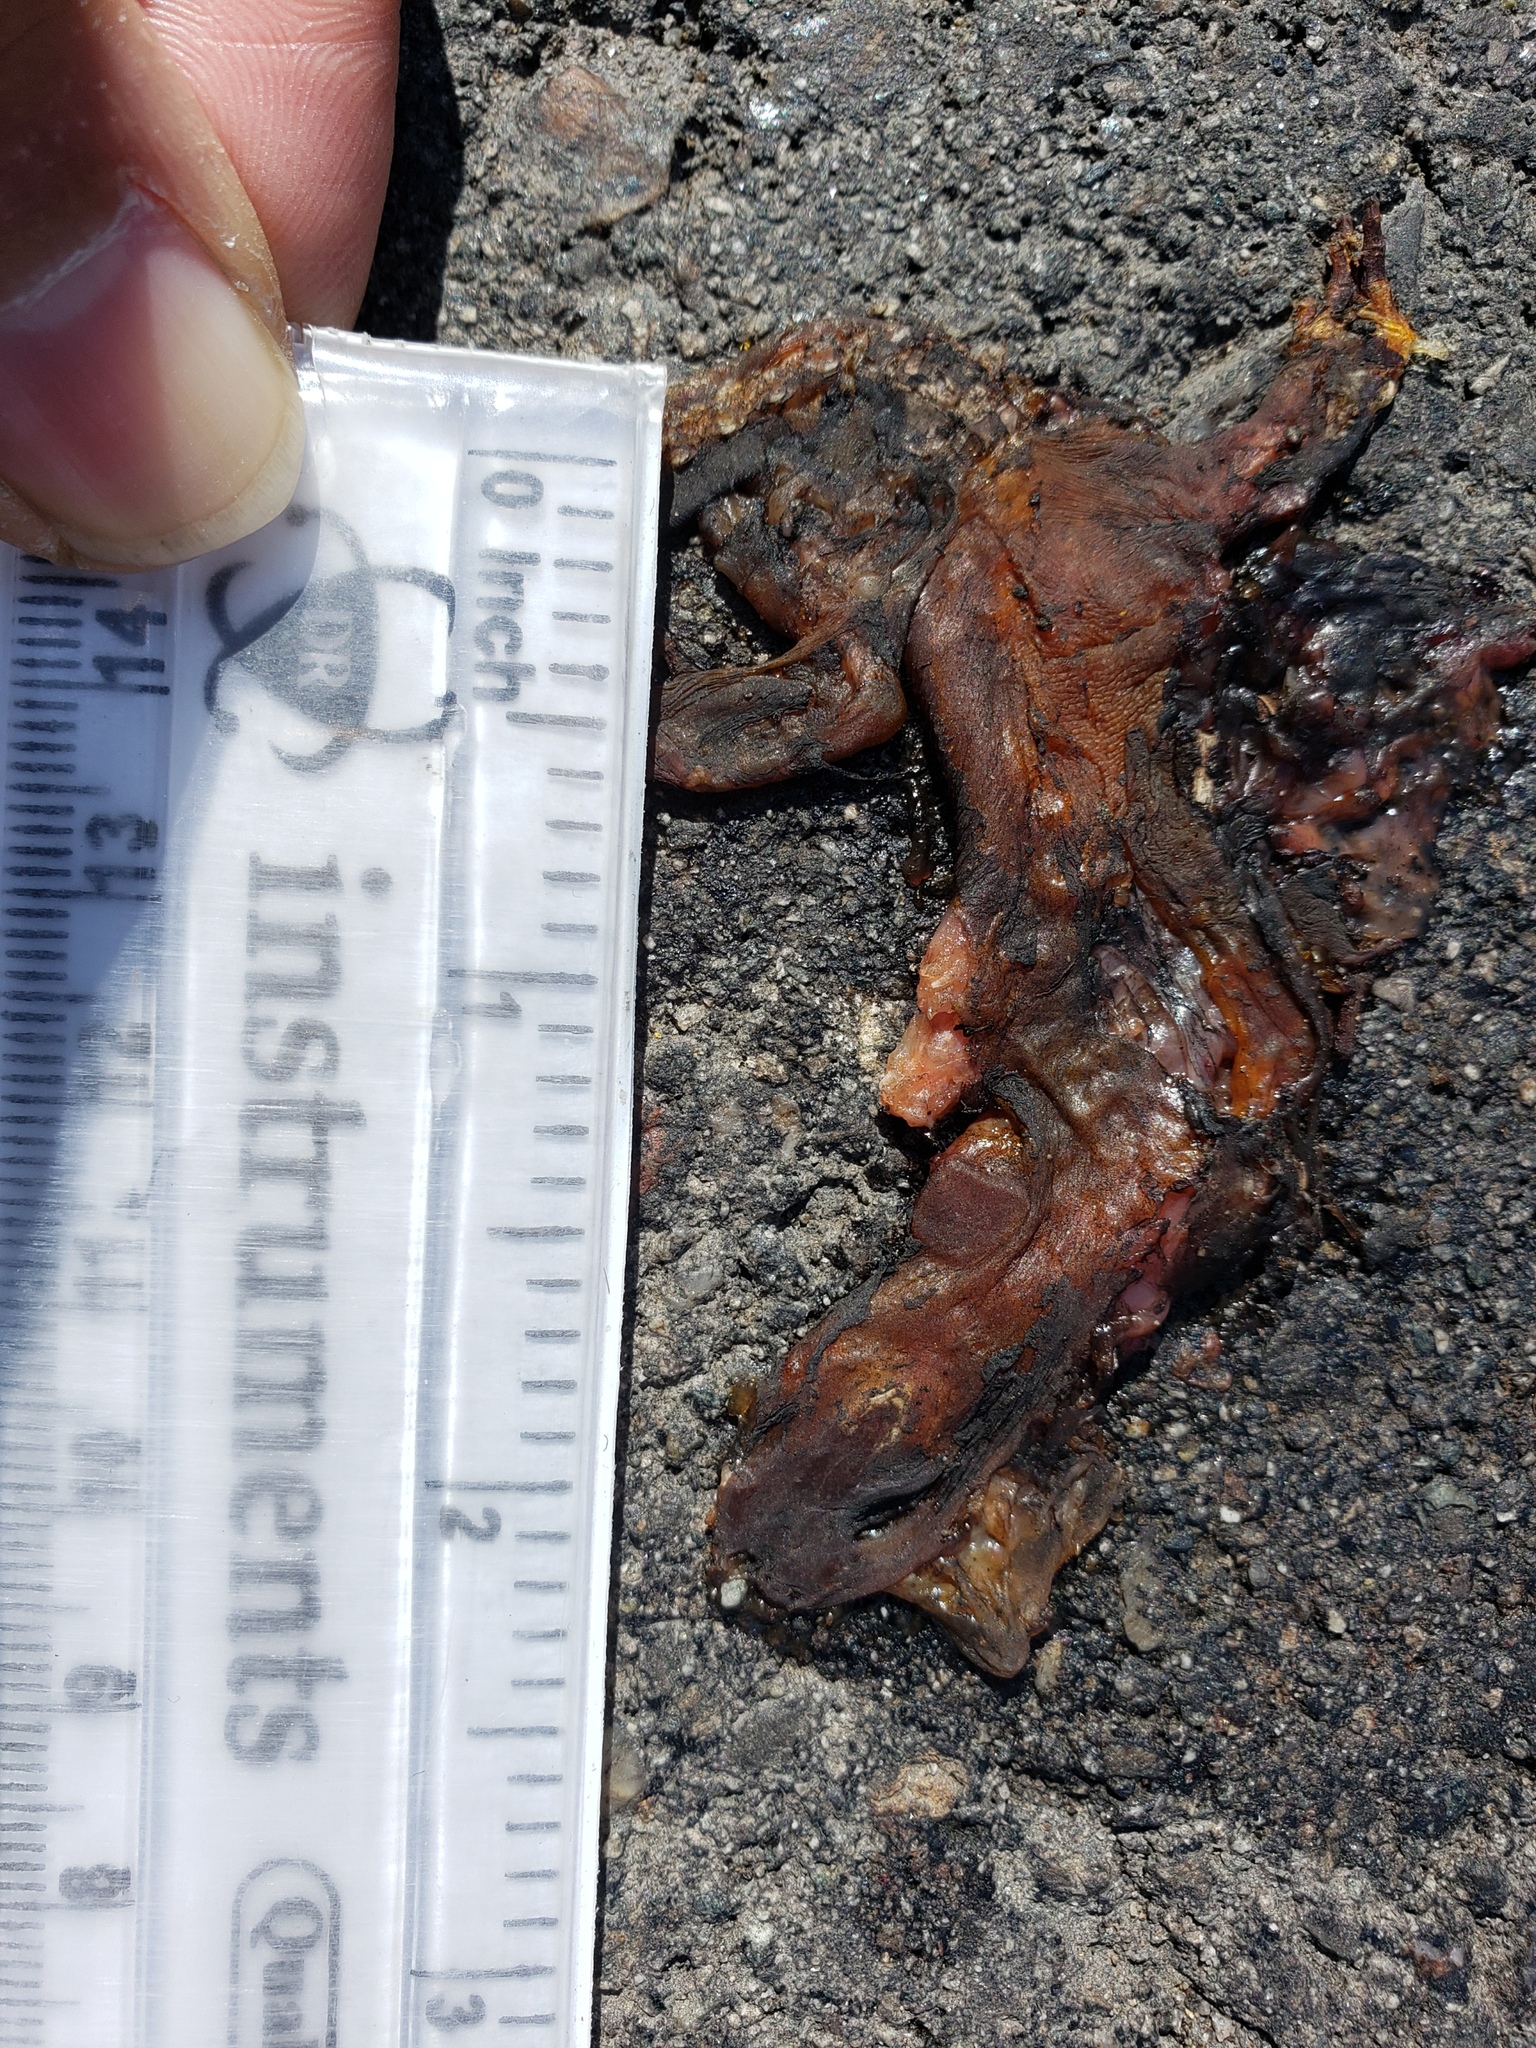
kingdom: Animalia
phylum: Chordata
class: Amphibia
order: Caudata
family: Salamandridae
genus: Taricha
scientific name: Taricha
